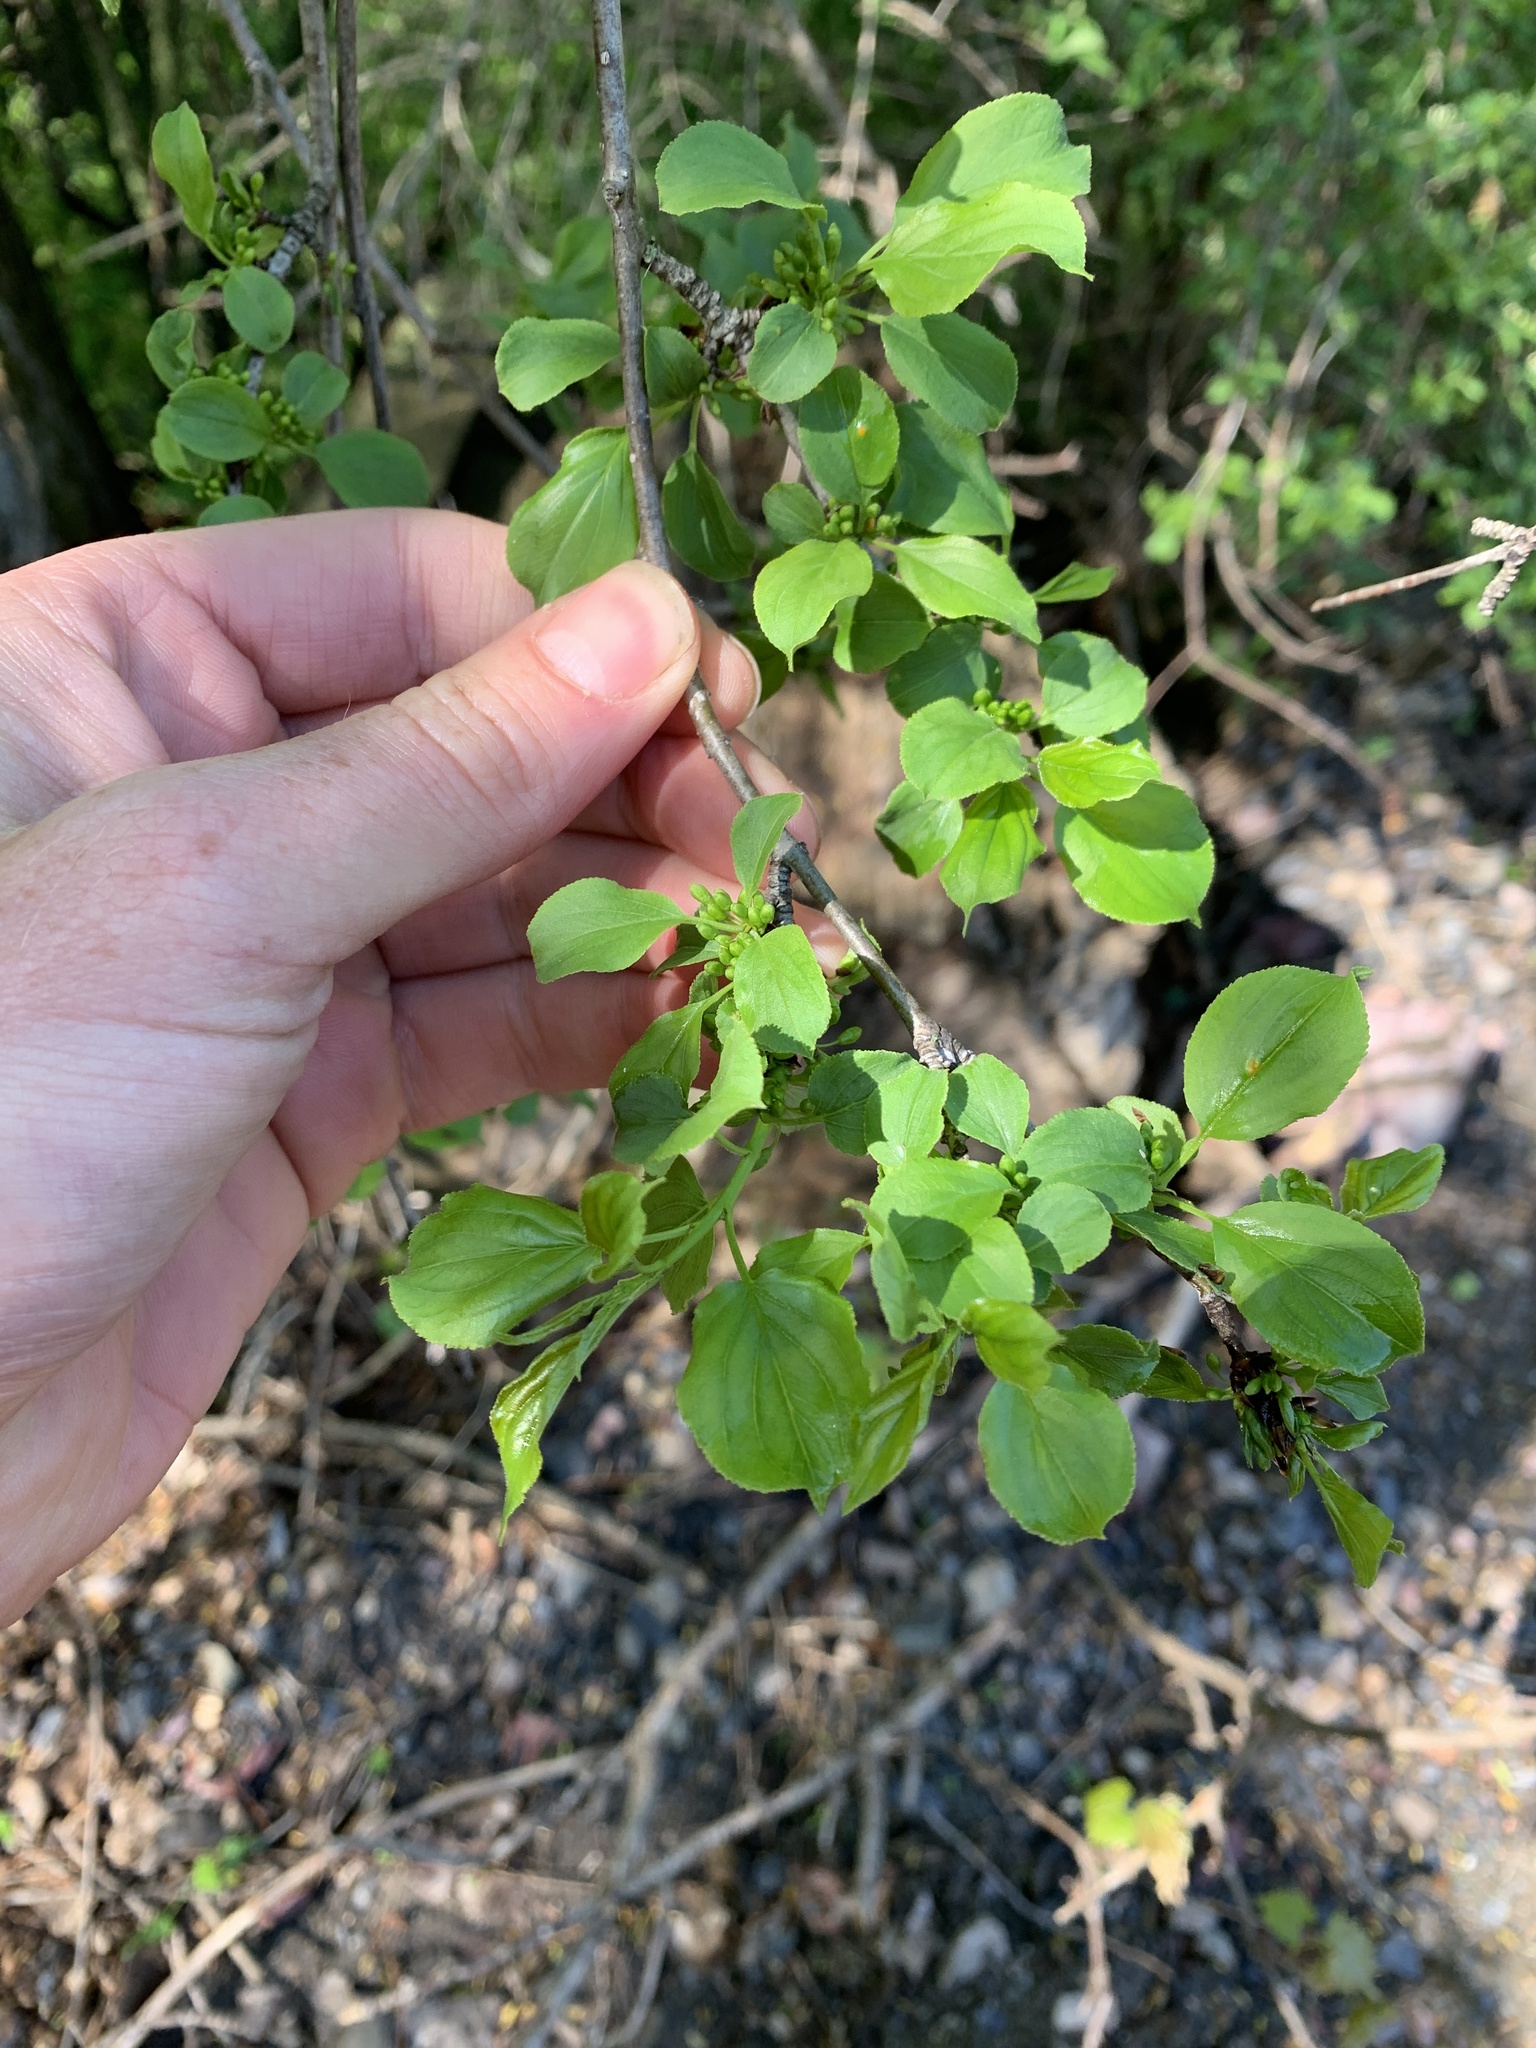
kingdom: Plantae
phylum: Tracheophyta
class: Magnoliopsida
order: Rosales
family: Rhamnaceae
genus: Rhamnus
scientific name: Rhamnus cathartica
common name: Common buckthorn
